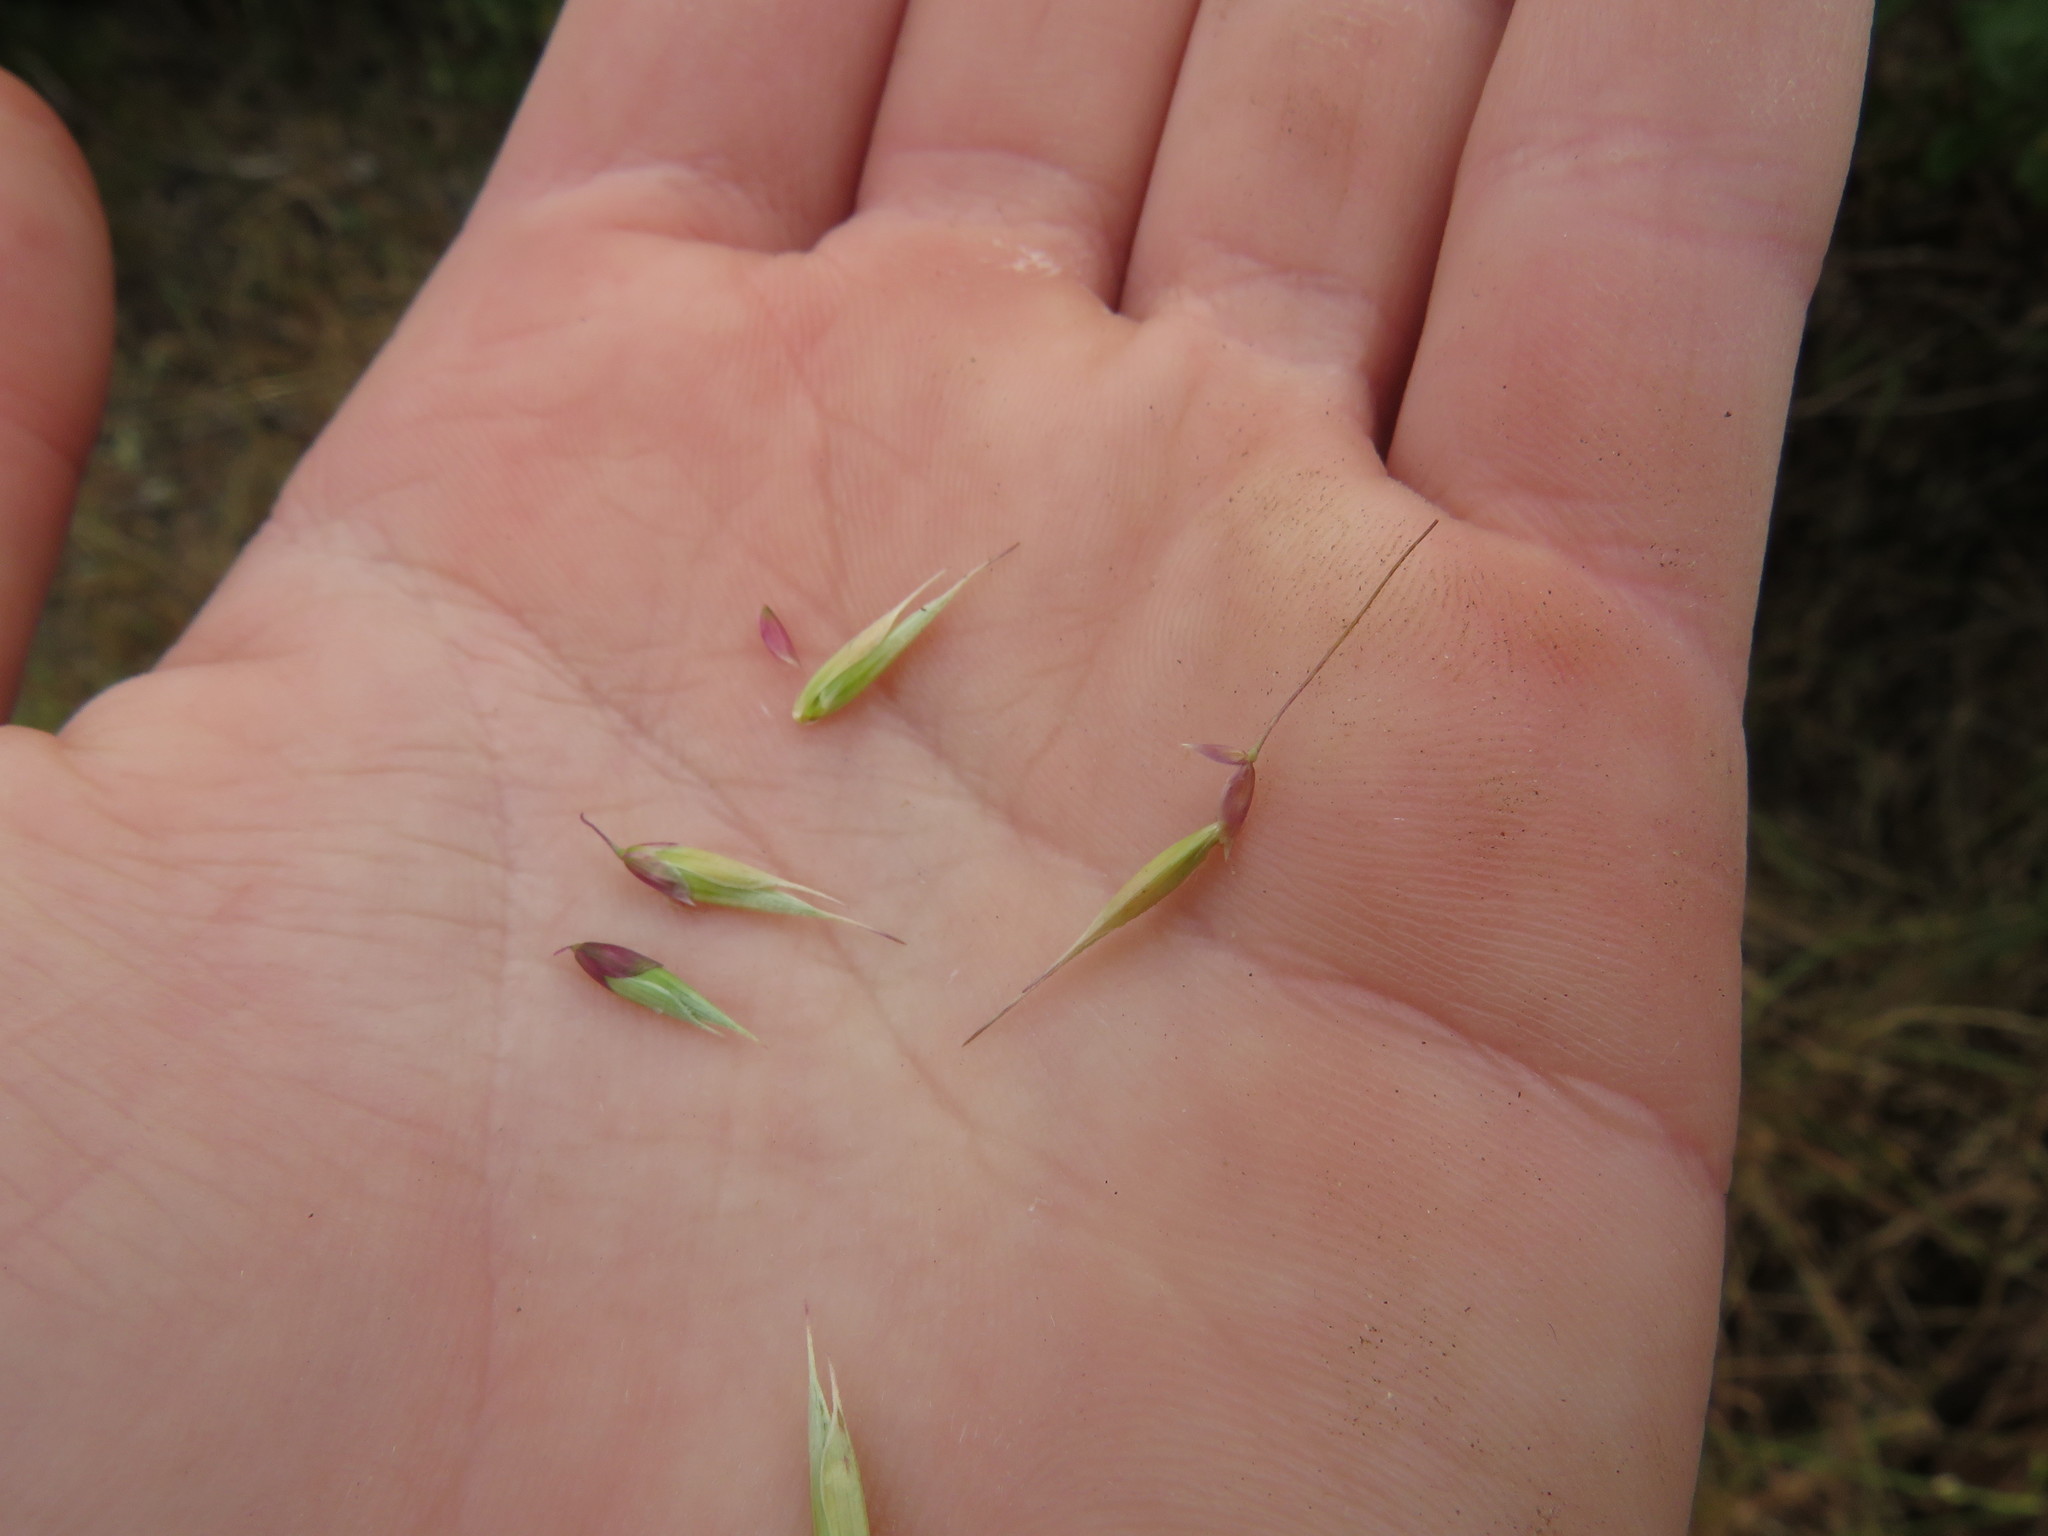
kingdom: Plantae
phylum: Tracheophyta
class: Liliopsida
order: Poales
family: Poaceae
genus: Ehrharta
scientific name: Ehrharta longiflora
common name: Longflowered veldtgrass
